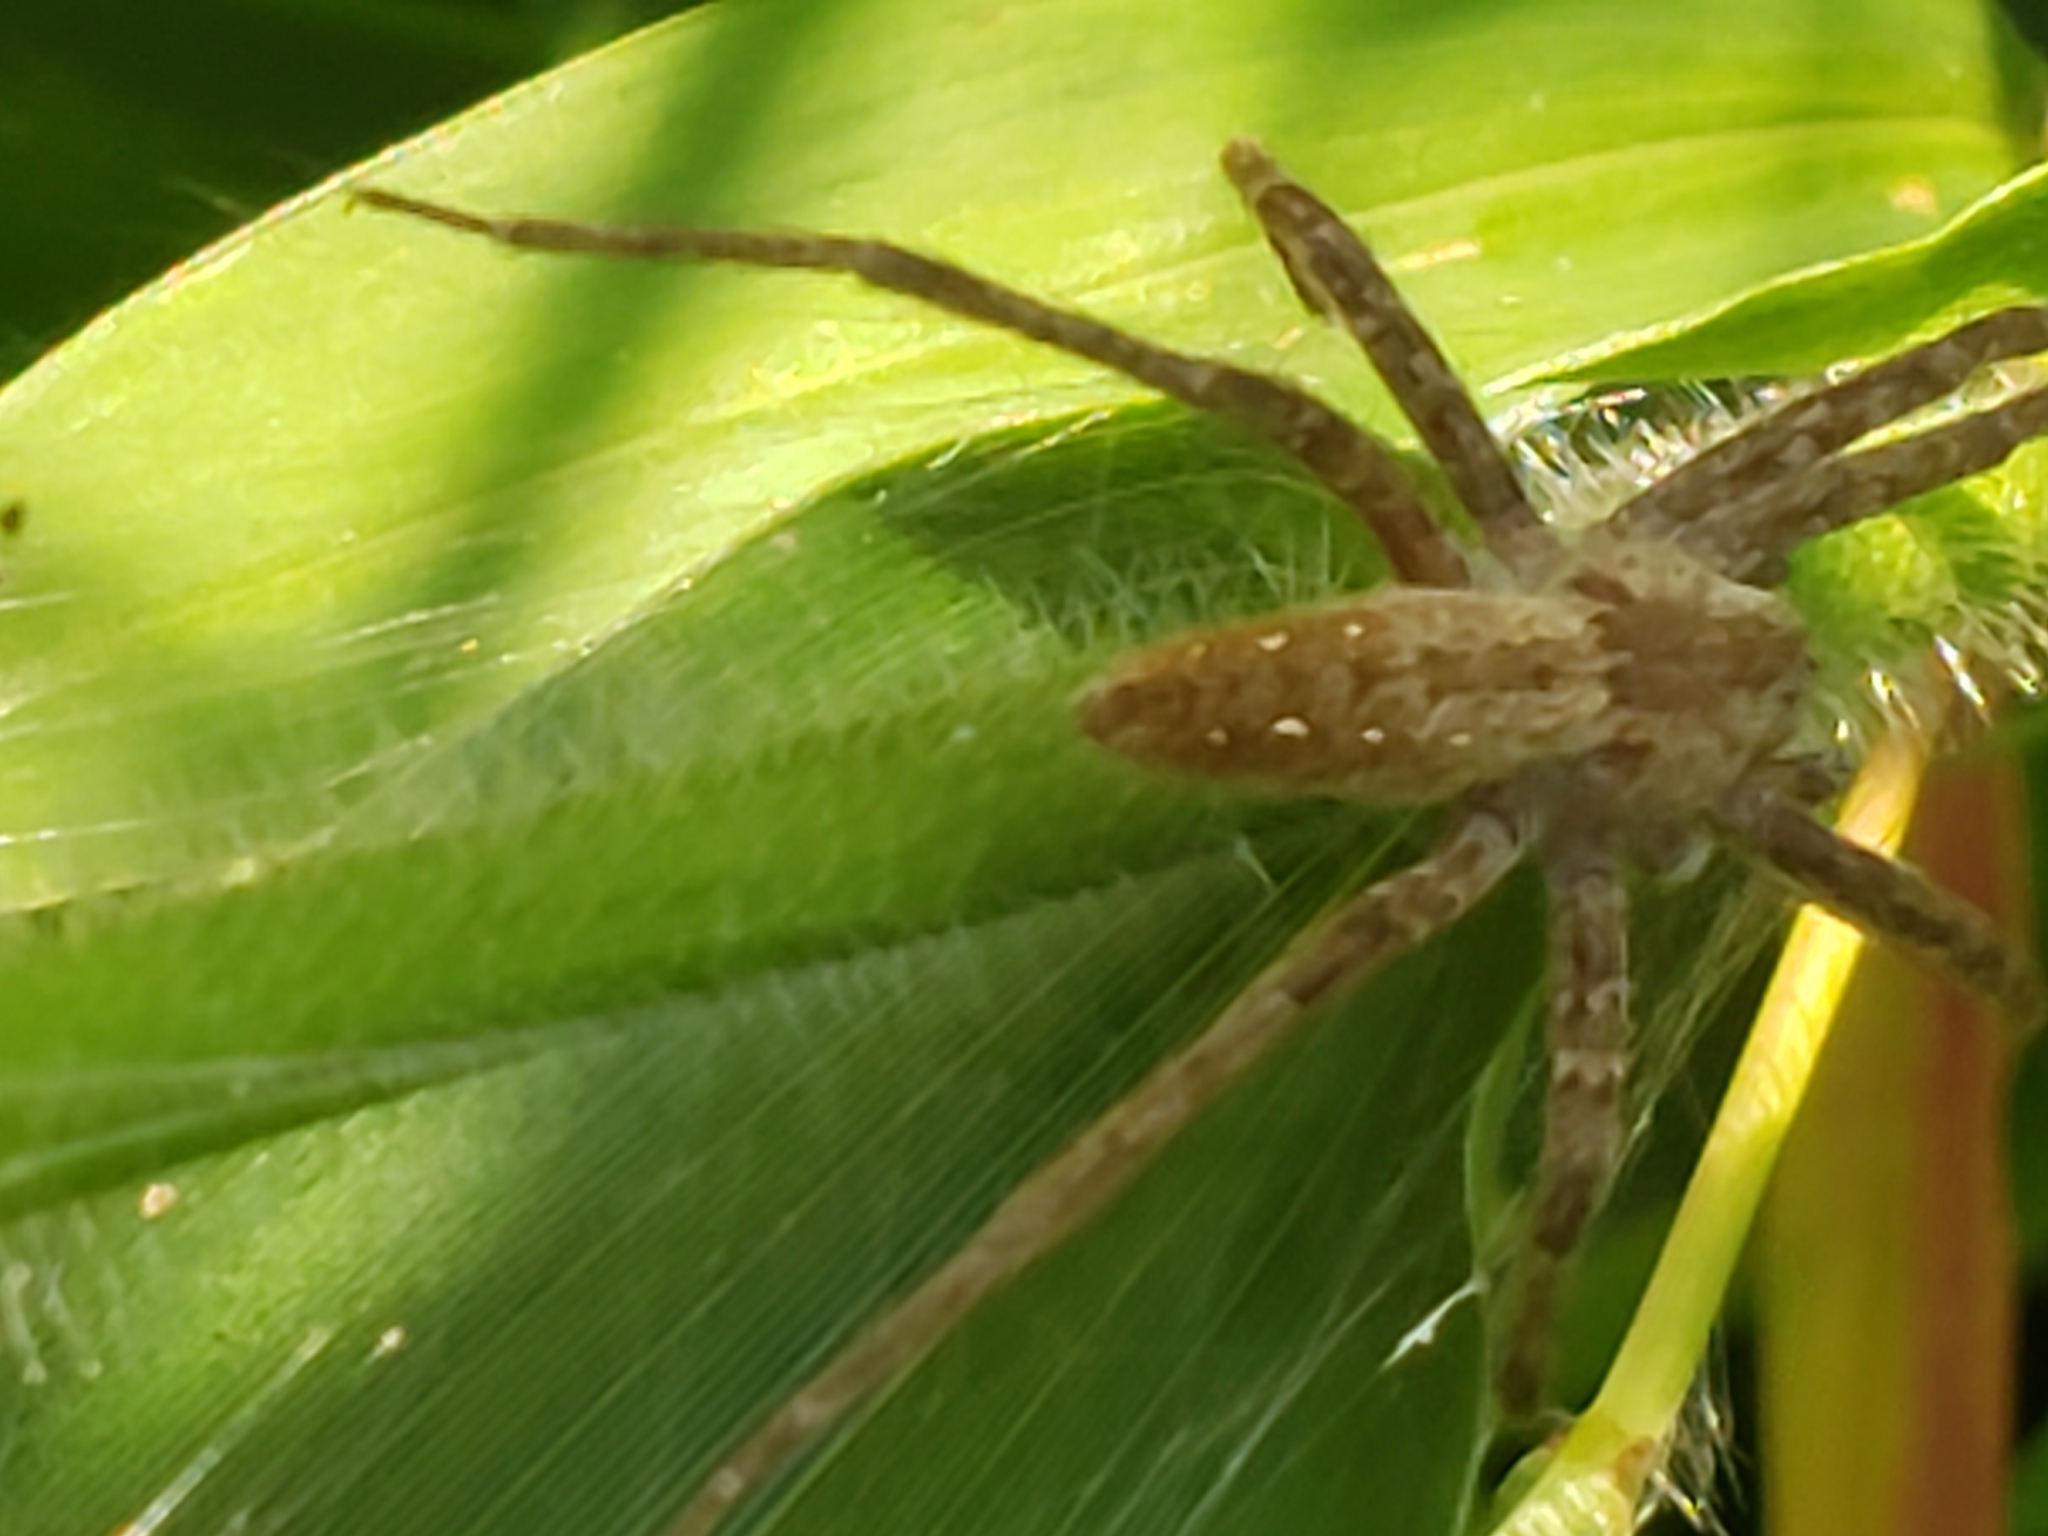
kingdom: Animalia
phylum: Arthropoda
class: Arachnida
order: Araneae
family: Pisauridae
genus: Pisaurina
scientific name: Pisaurina mira
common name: American nursery web spider
